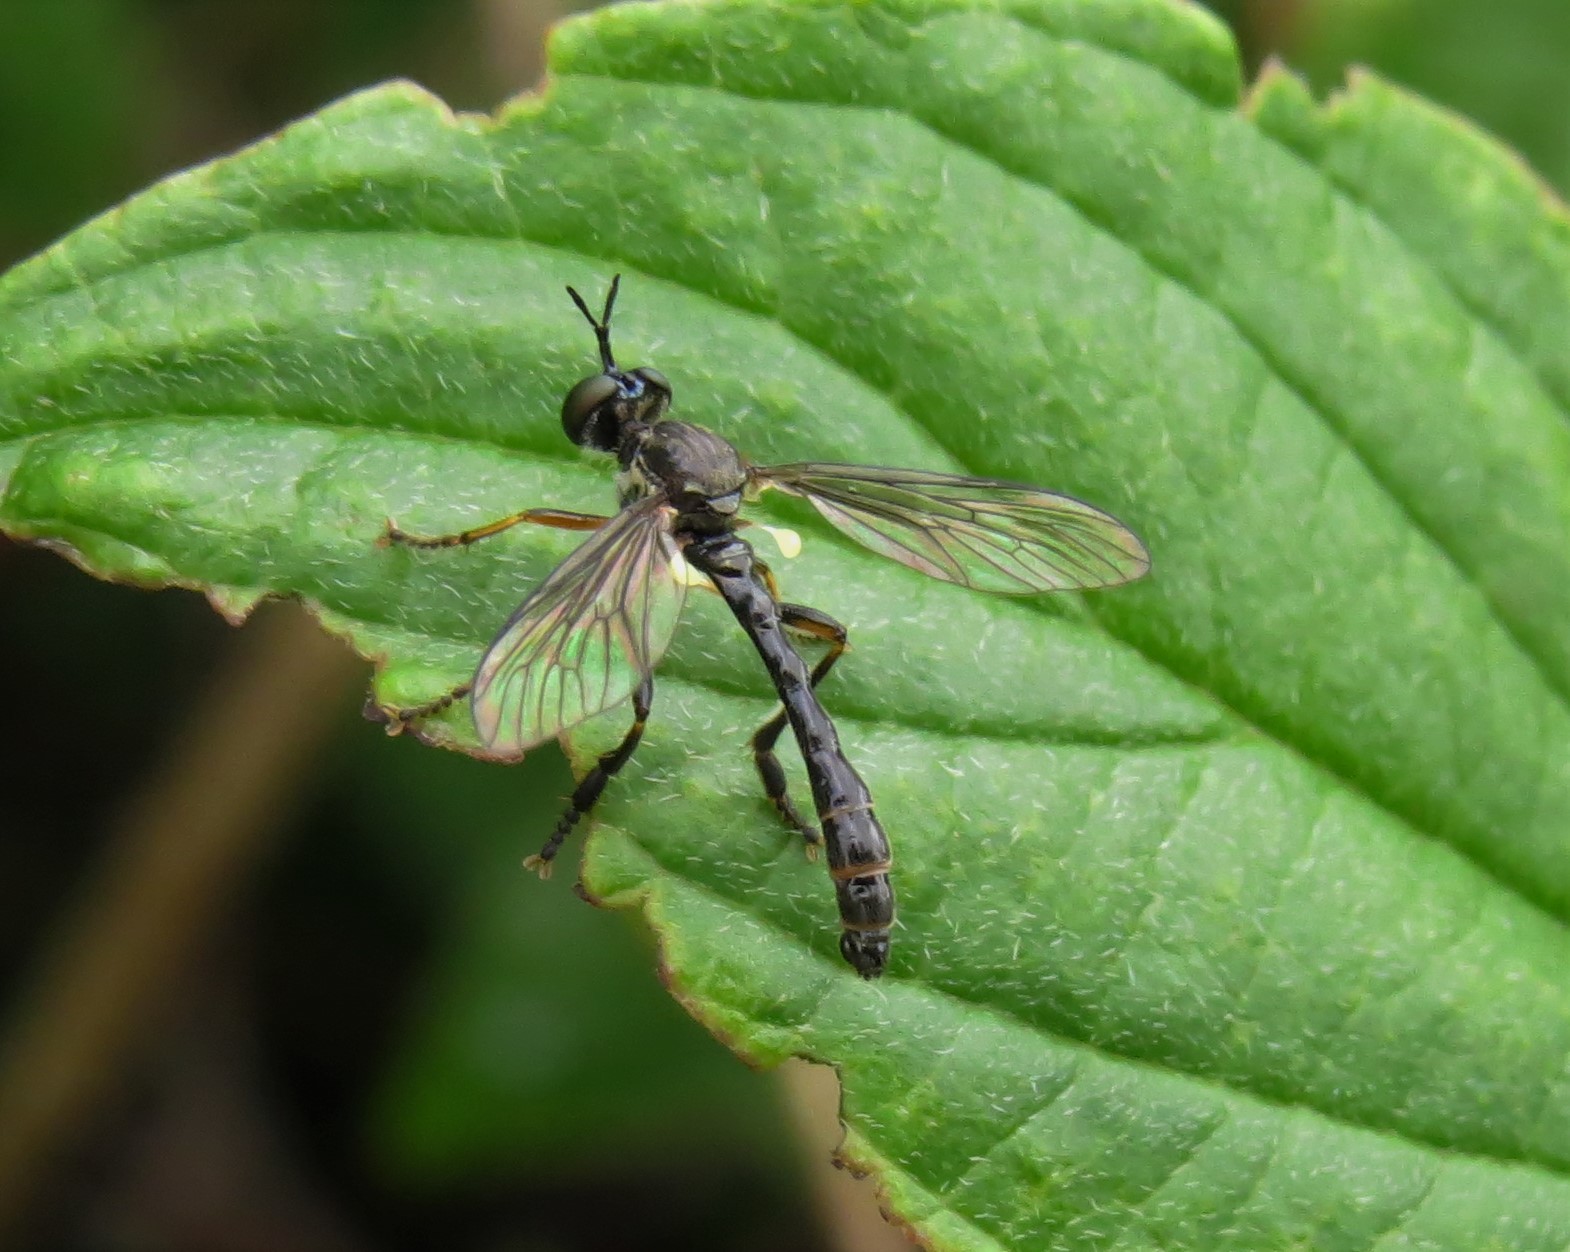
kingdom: Animalia
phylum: Arthropoda
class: Insecta
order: Diptera
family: Asilidae
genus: Dioctria
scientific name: Dioctria hyalipennis
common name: Stripe-legged robberfly
